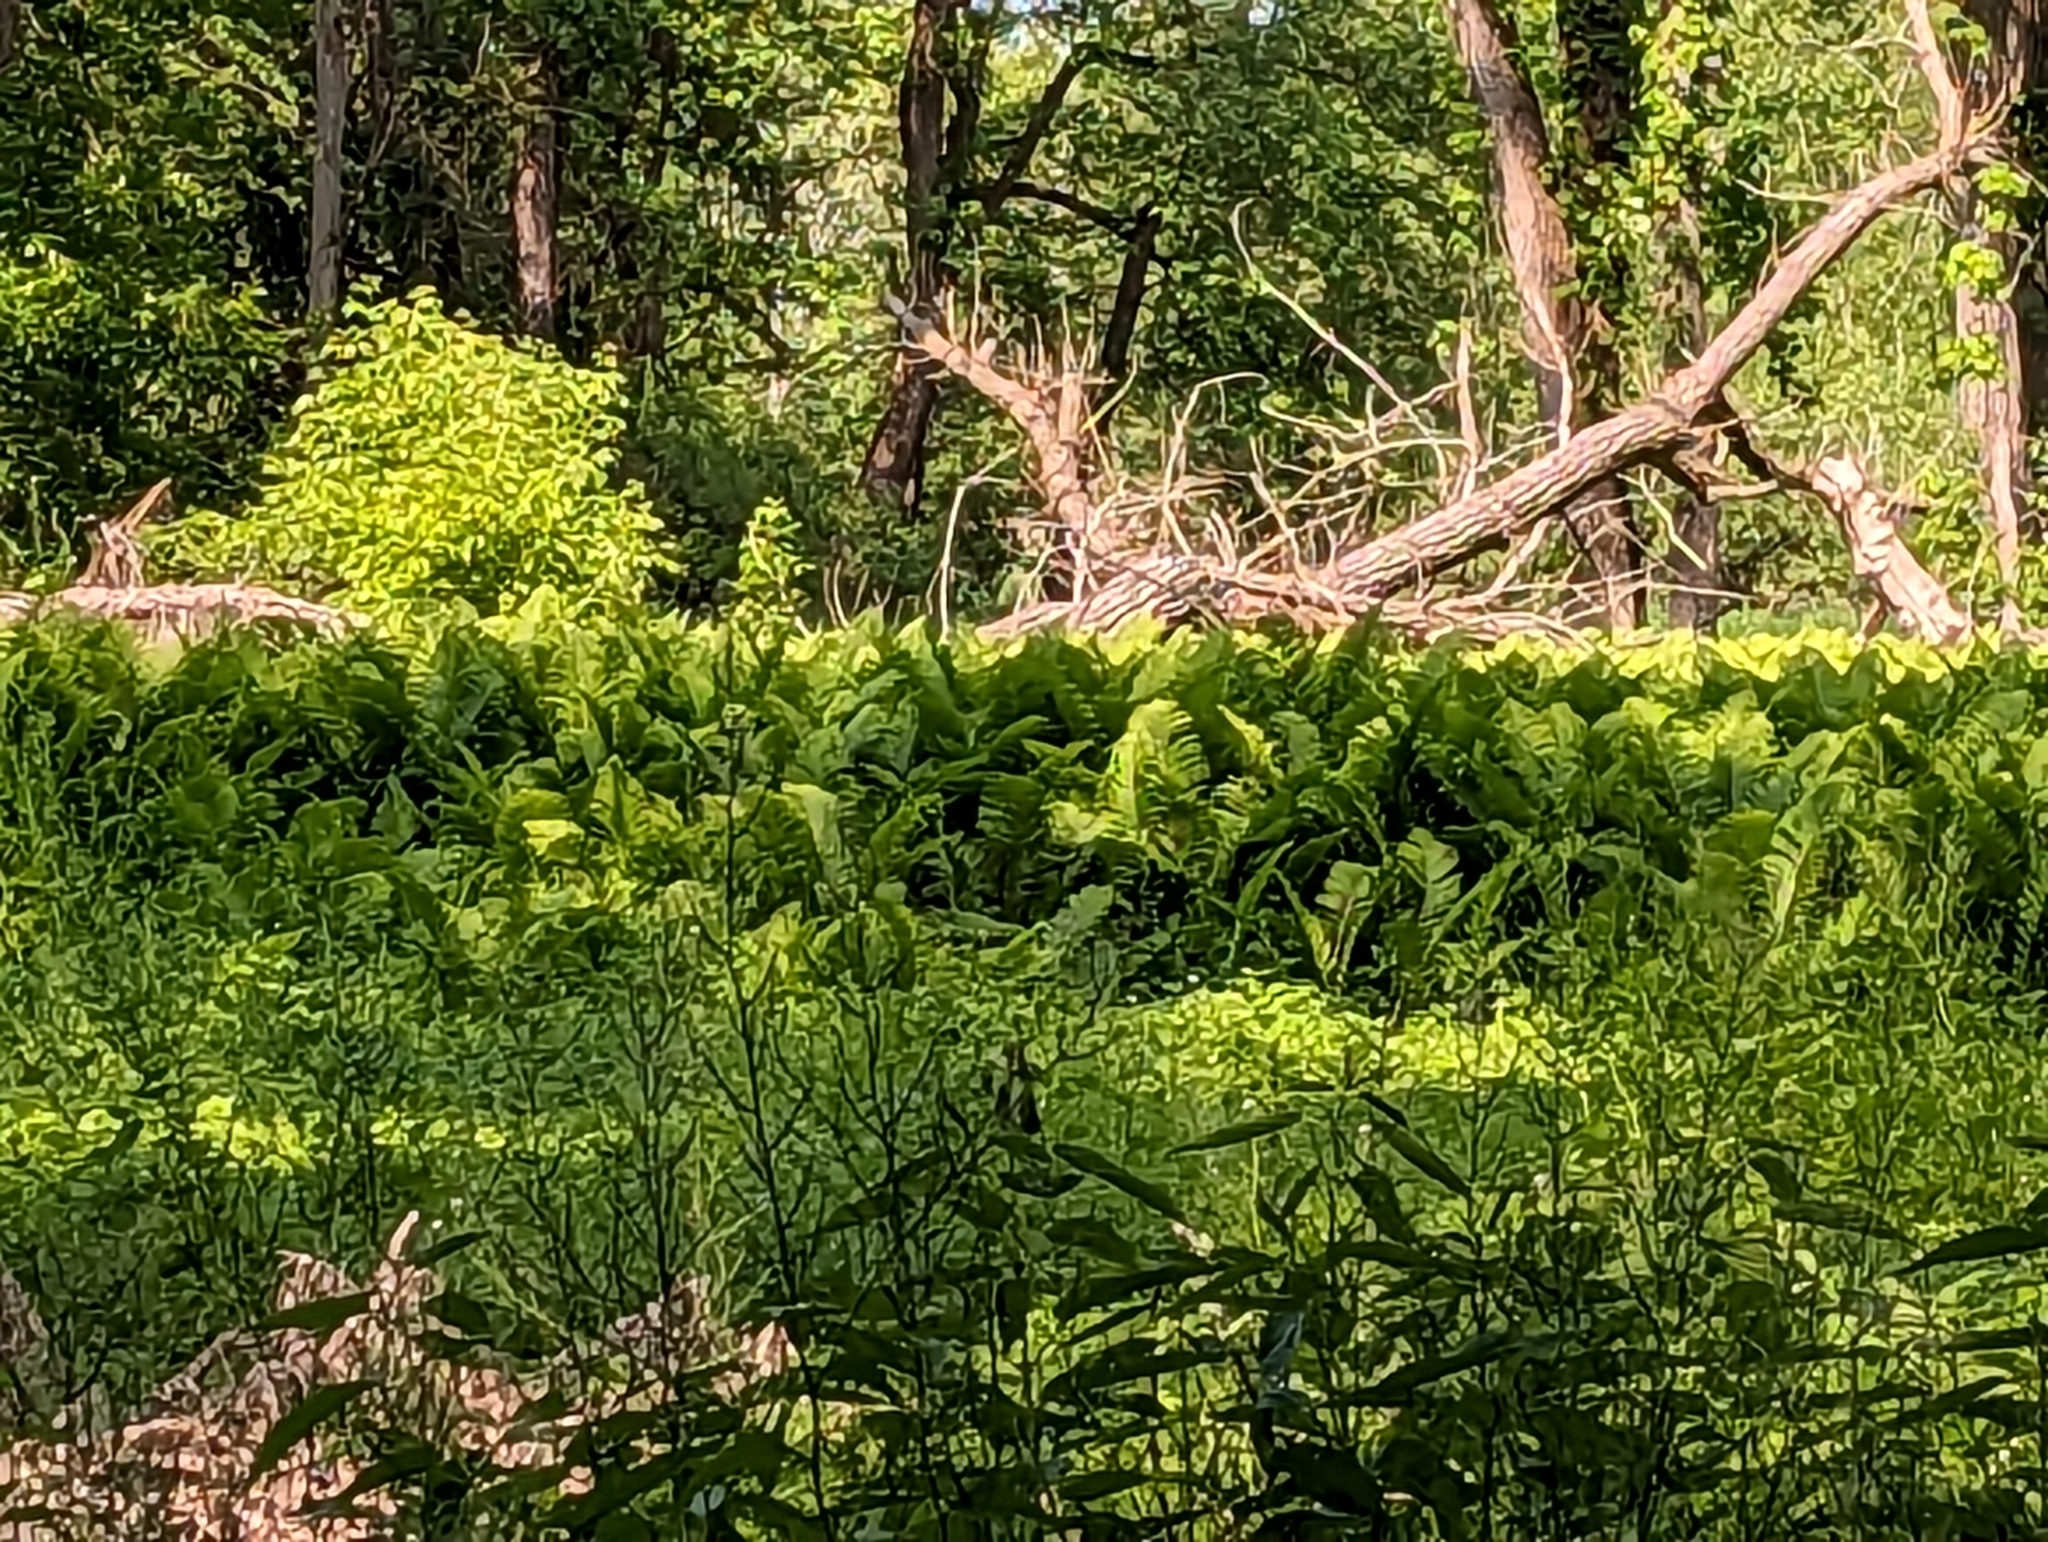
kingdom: Plantae
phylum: Tracheophyta
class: Polypodiopsida
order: Polypodiales
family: Onocleaceae
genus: Matteuccia
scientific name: Matteuccia struthiopteris
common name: Ostrich fern
